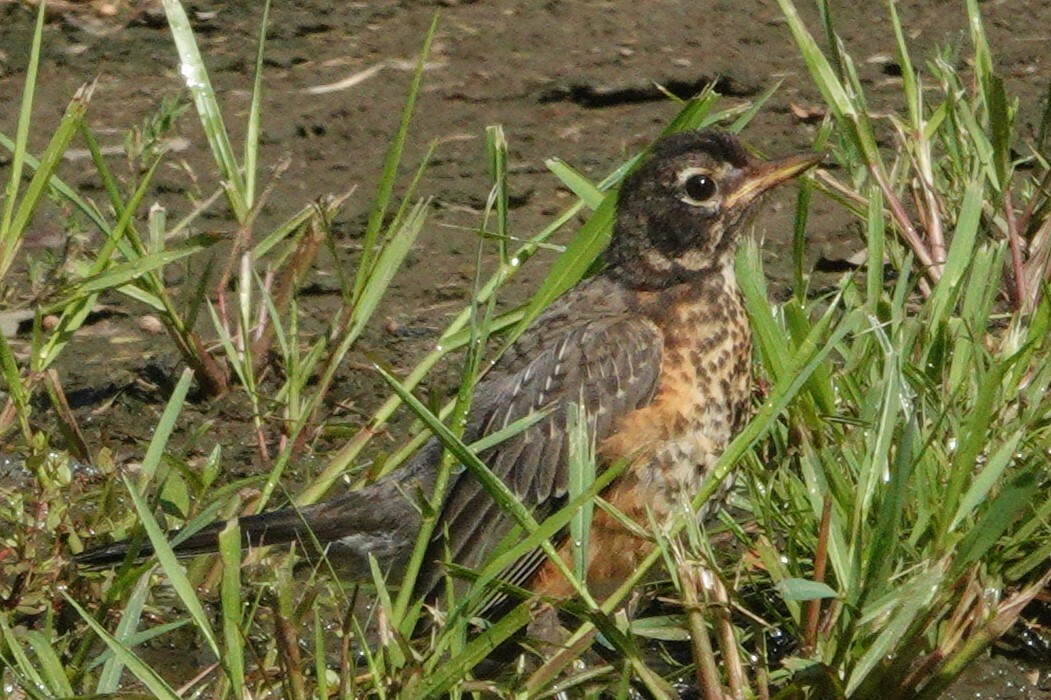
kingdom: Animalia
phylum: Chordata
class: Aves
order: Passeriformes
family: Turdidae
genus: Turdus
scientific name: Turdus migratorius
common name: American robin
